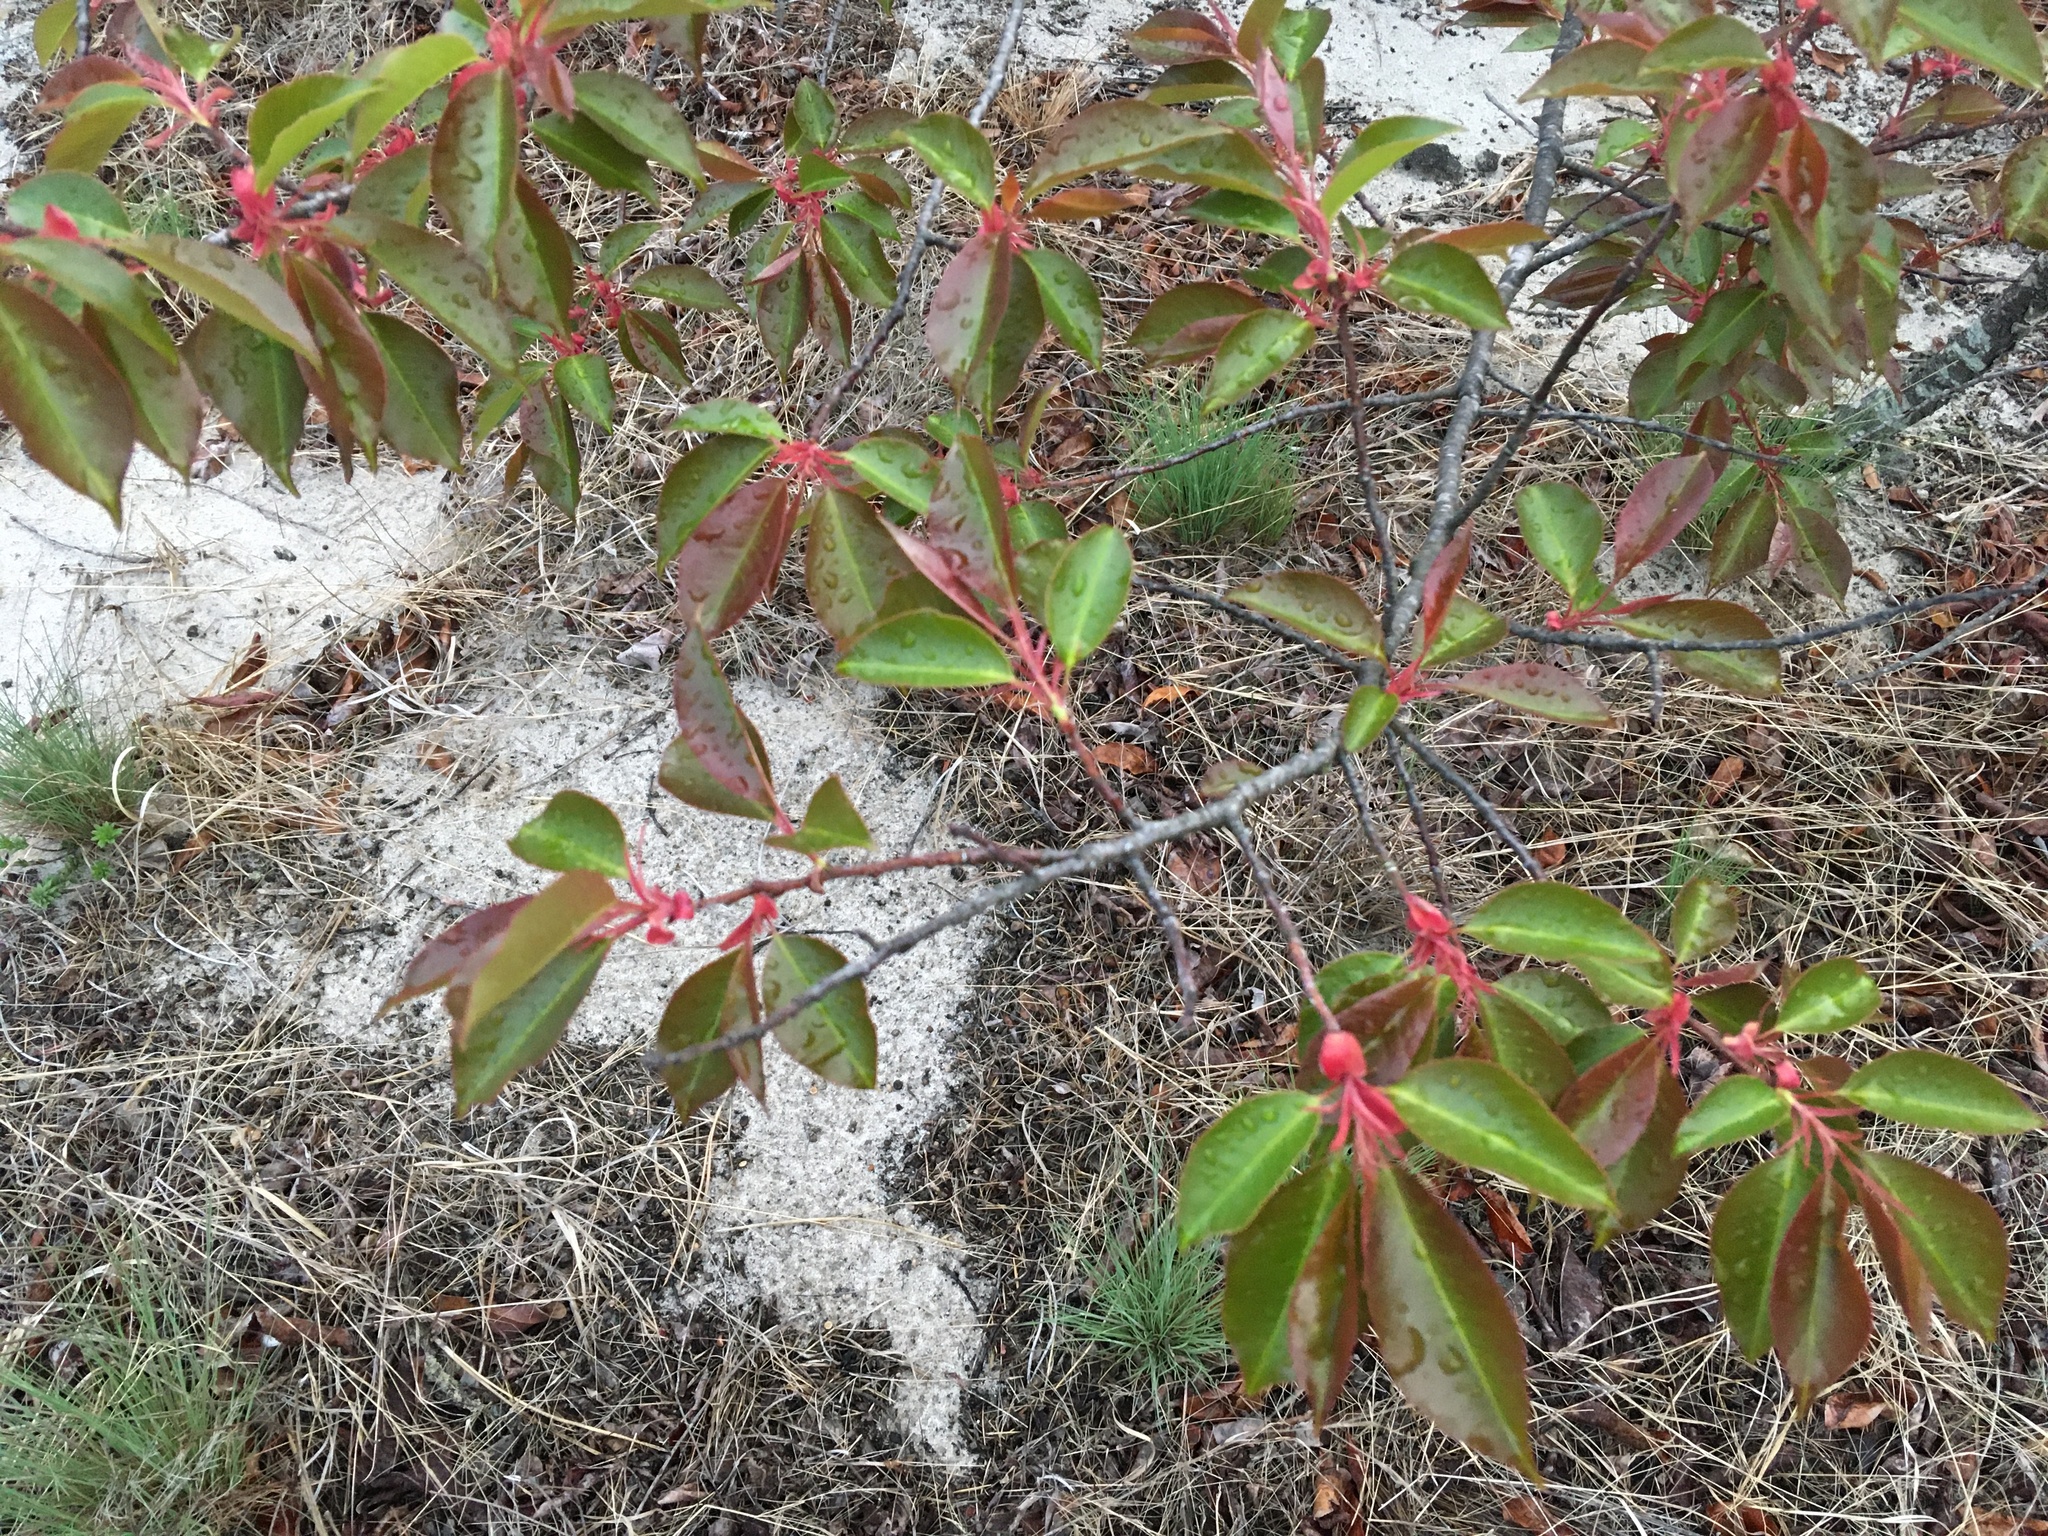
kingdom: Plantae
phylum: Tracheophyta
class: Magnoliopsida
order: Rosales
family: Rosaceae
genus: Prunus
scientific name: Prunus serotina
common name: Black cherry
